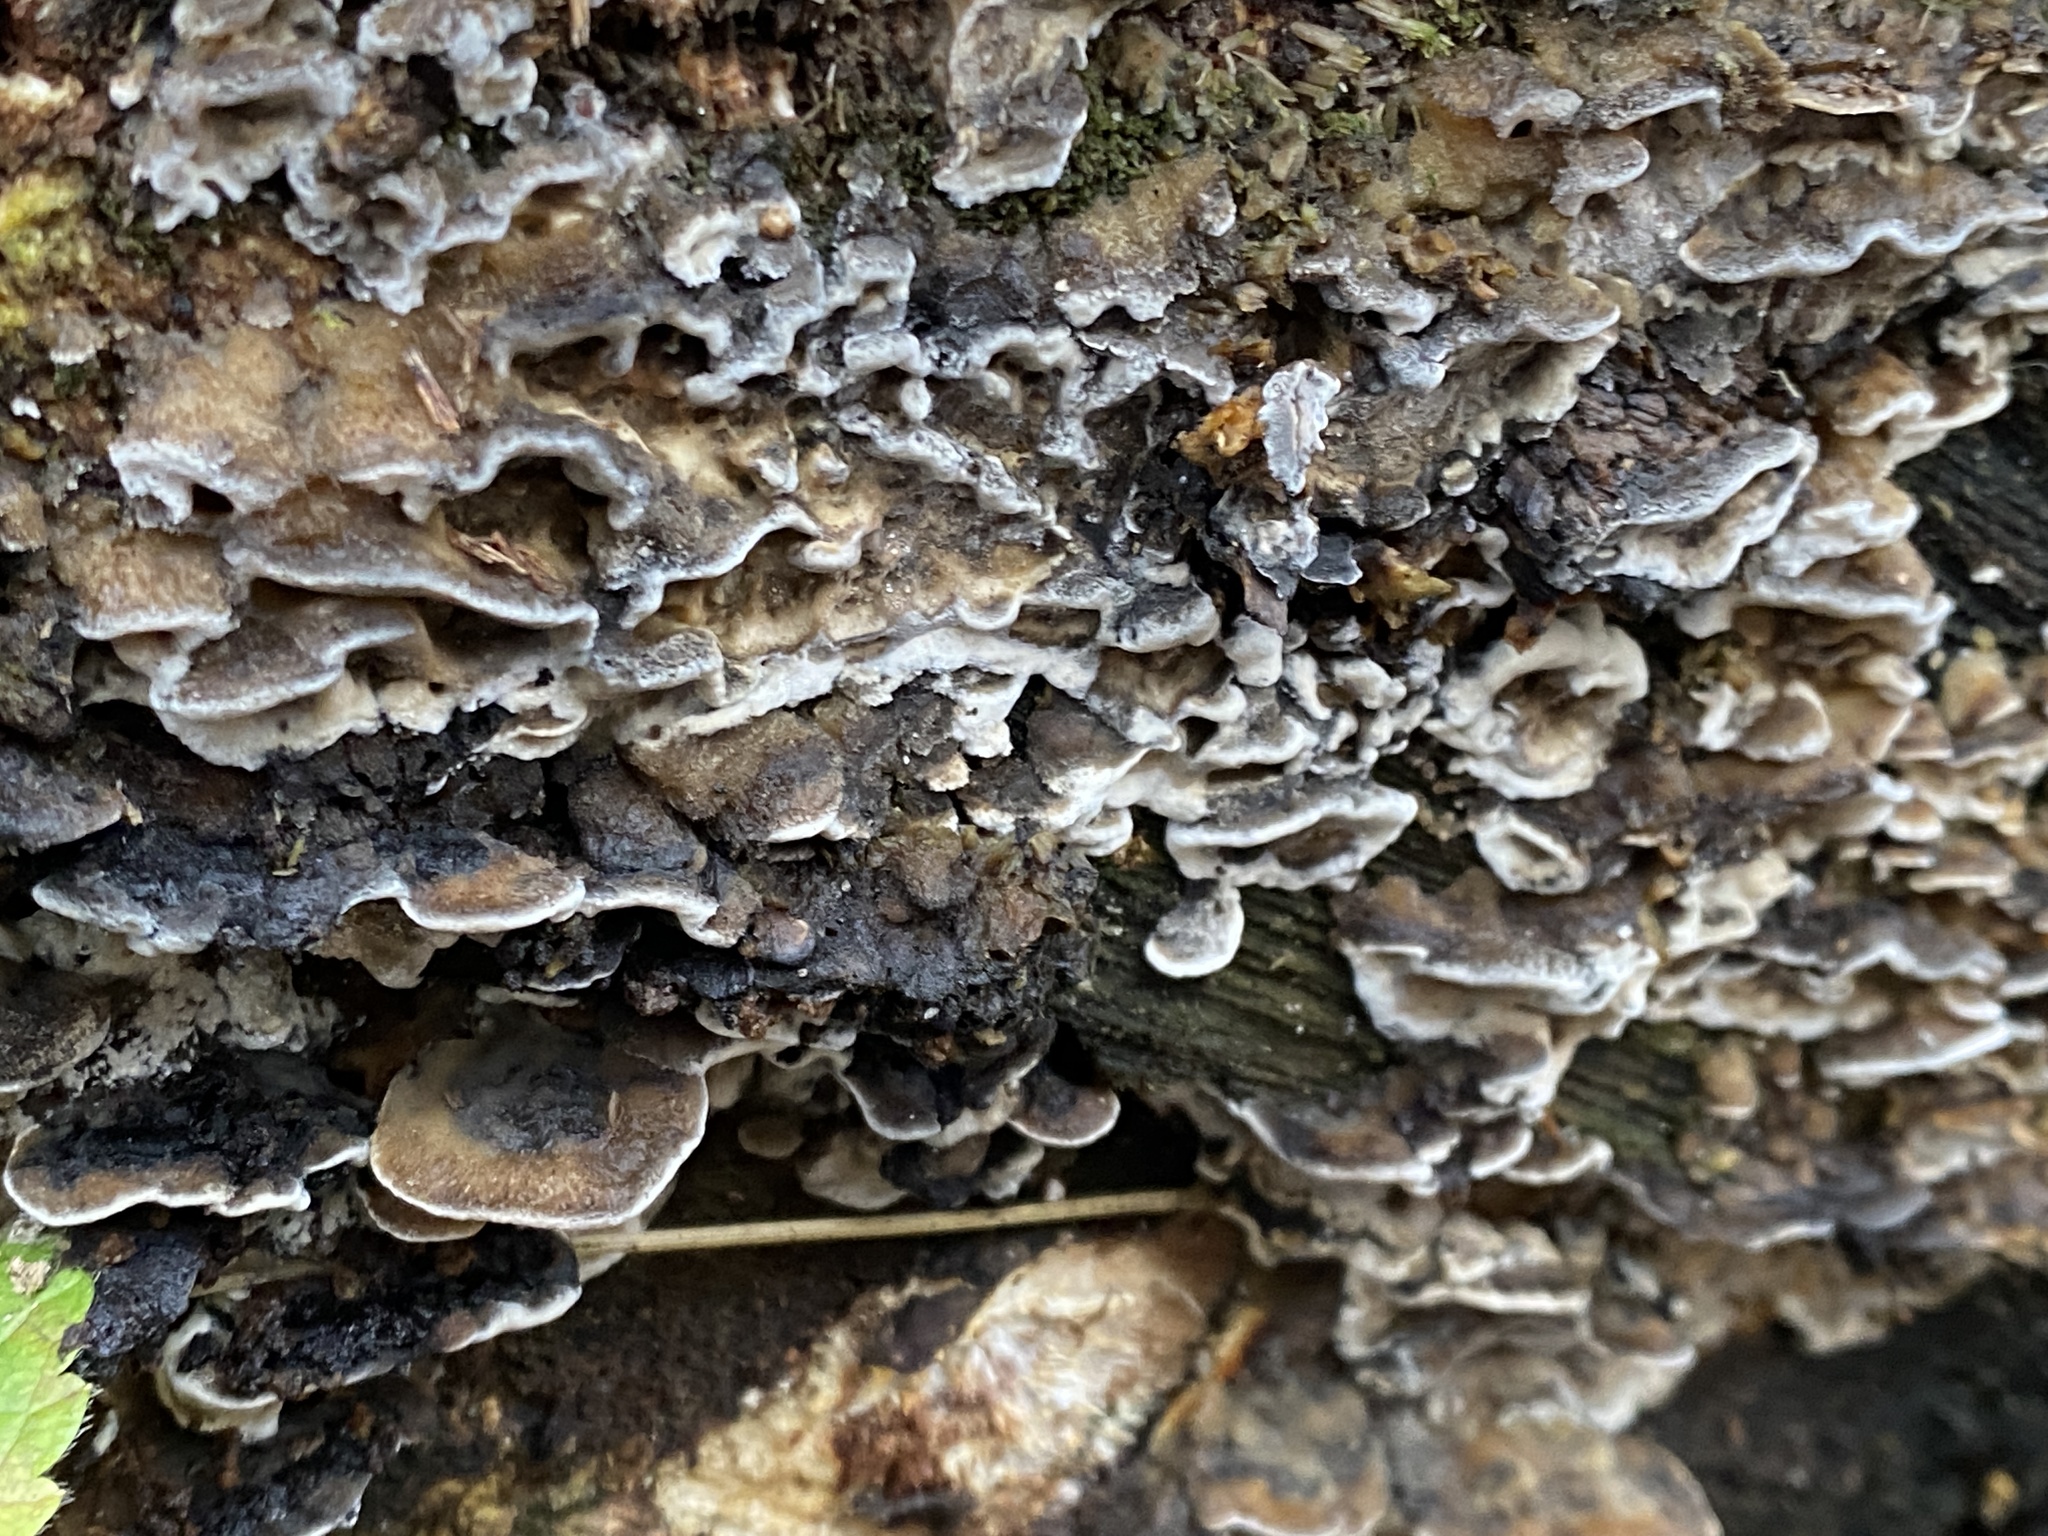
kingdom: Fungi
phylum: Basidiomycota
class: Agaricomycetes
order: Polyporales
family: Phanerochaetaceae
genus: Bjerkandera
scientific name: Bjerkandera adusta
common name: Smoky bracket
